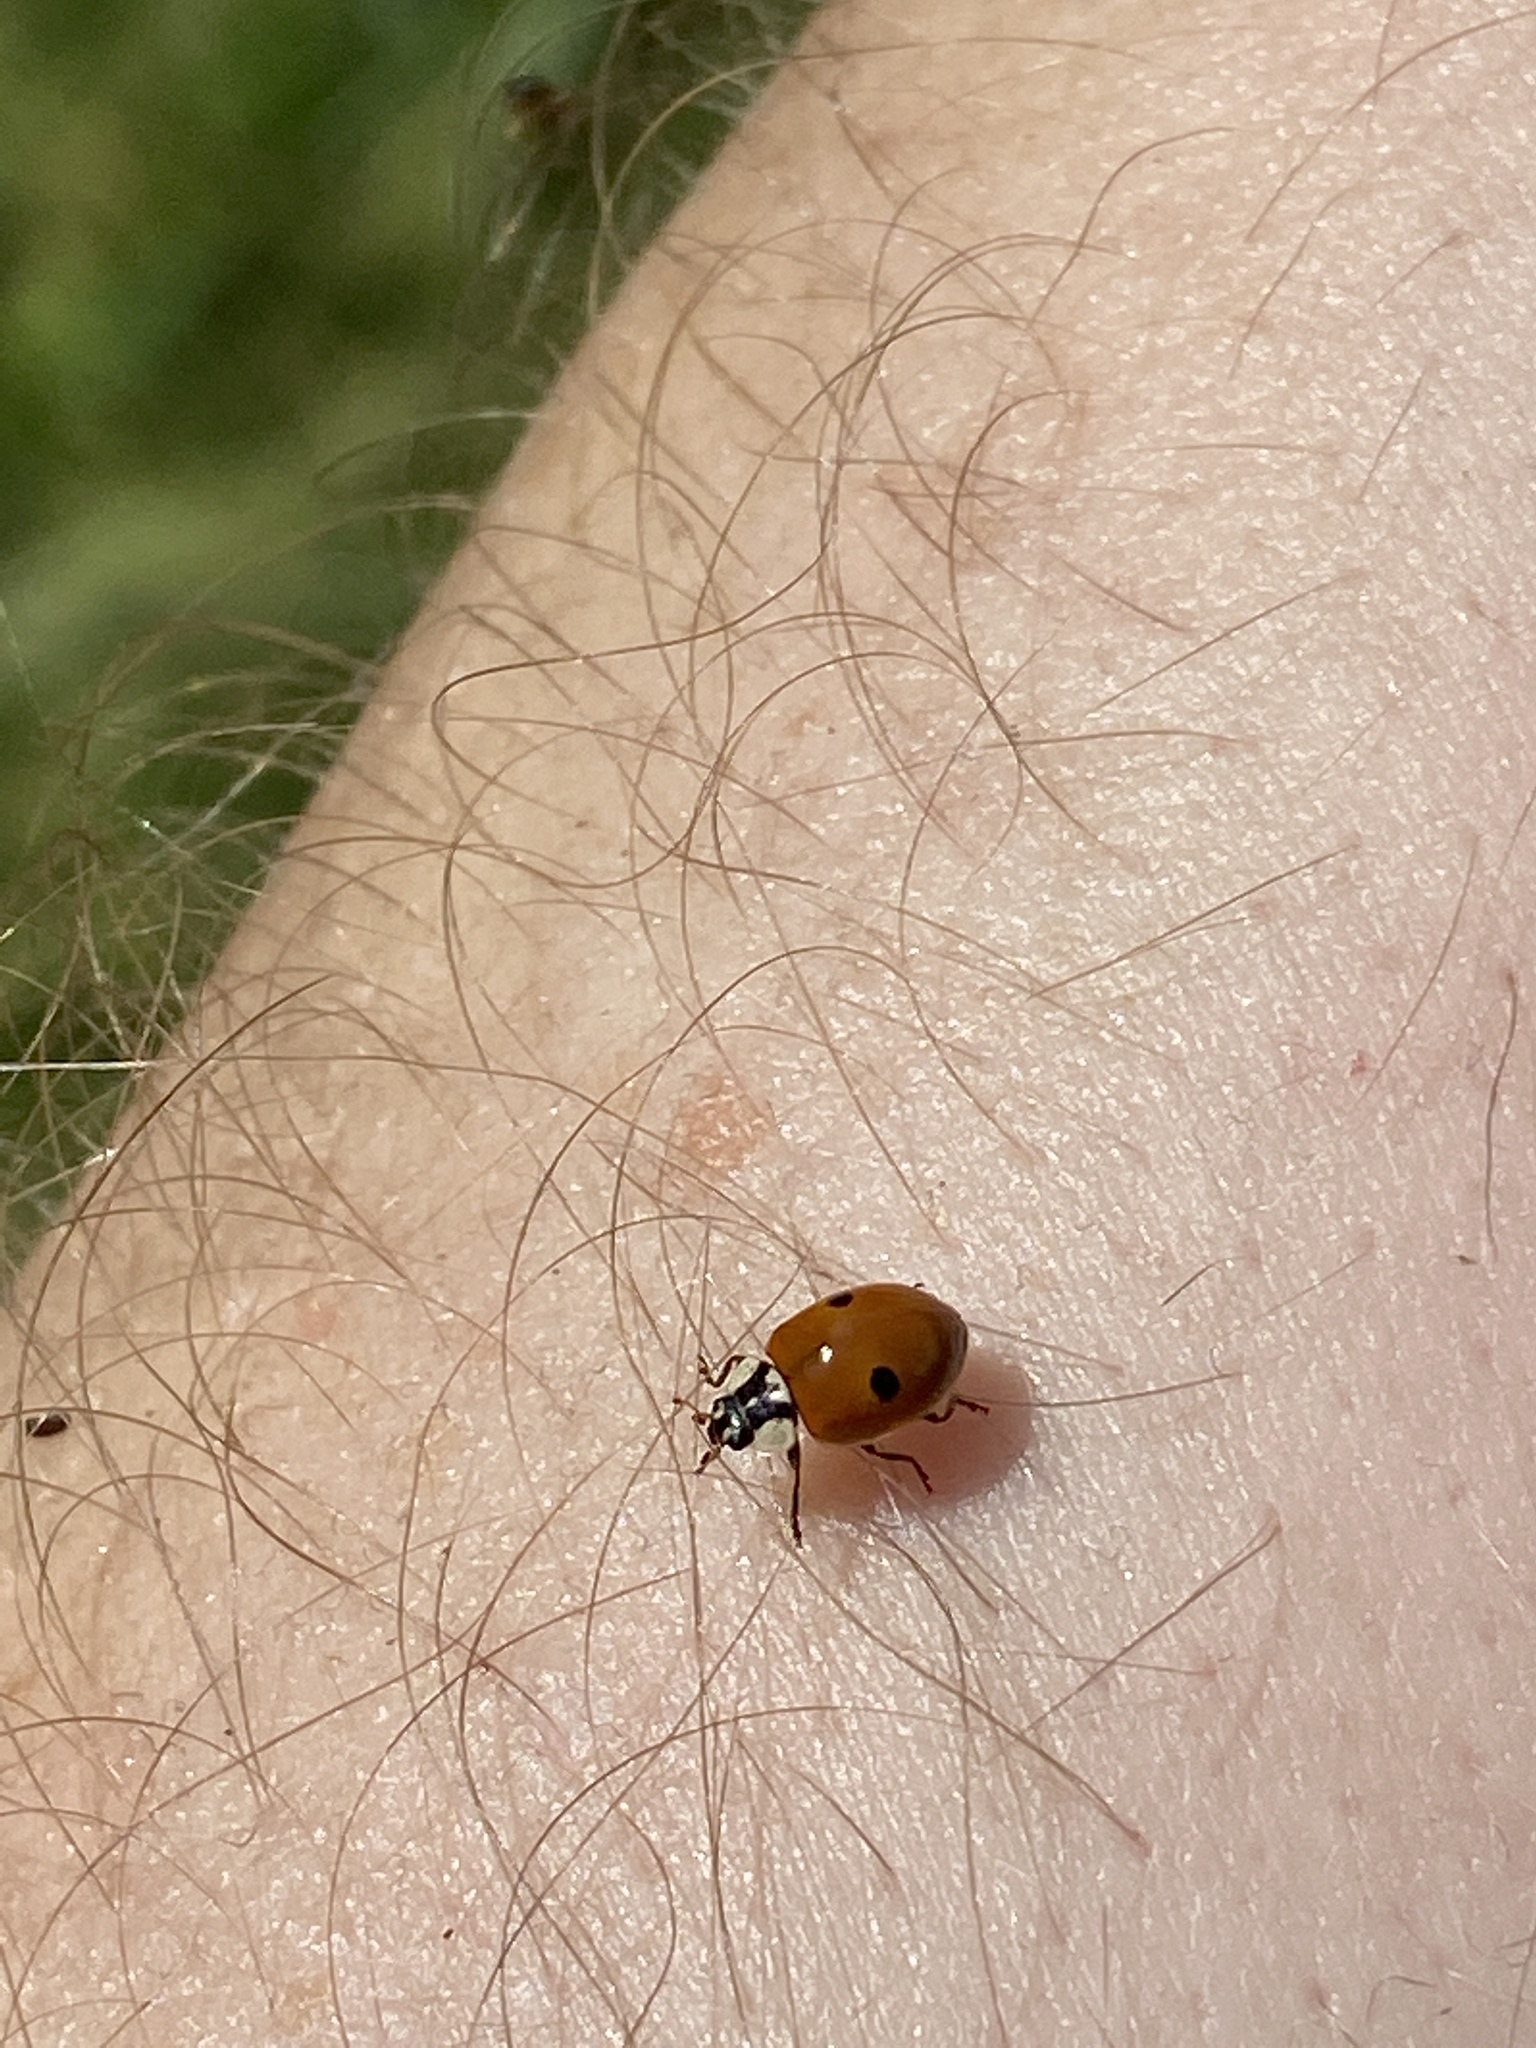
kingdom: Animalia
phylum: Arthropoda
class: Insecta
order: Coleoptera
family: Coccinellidae
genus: Adalia
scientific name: Adalia bipunctata
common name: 2-spot ladybird
